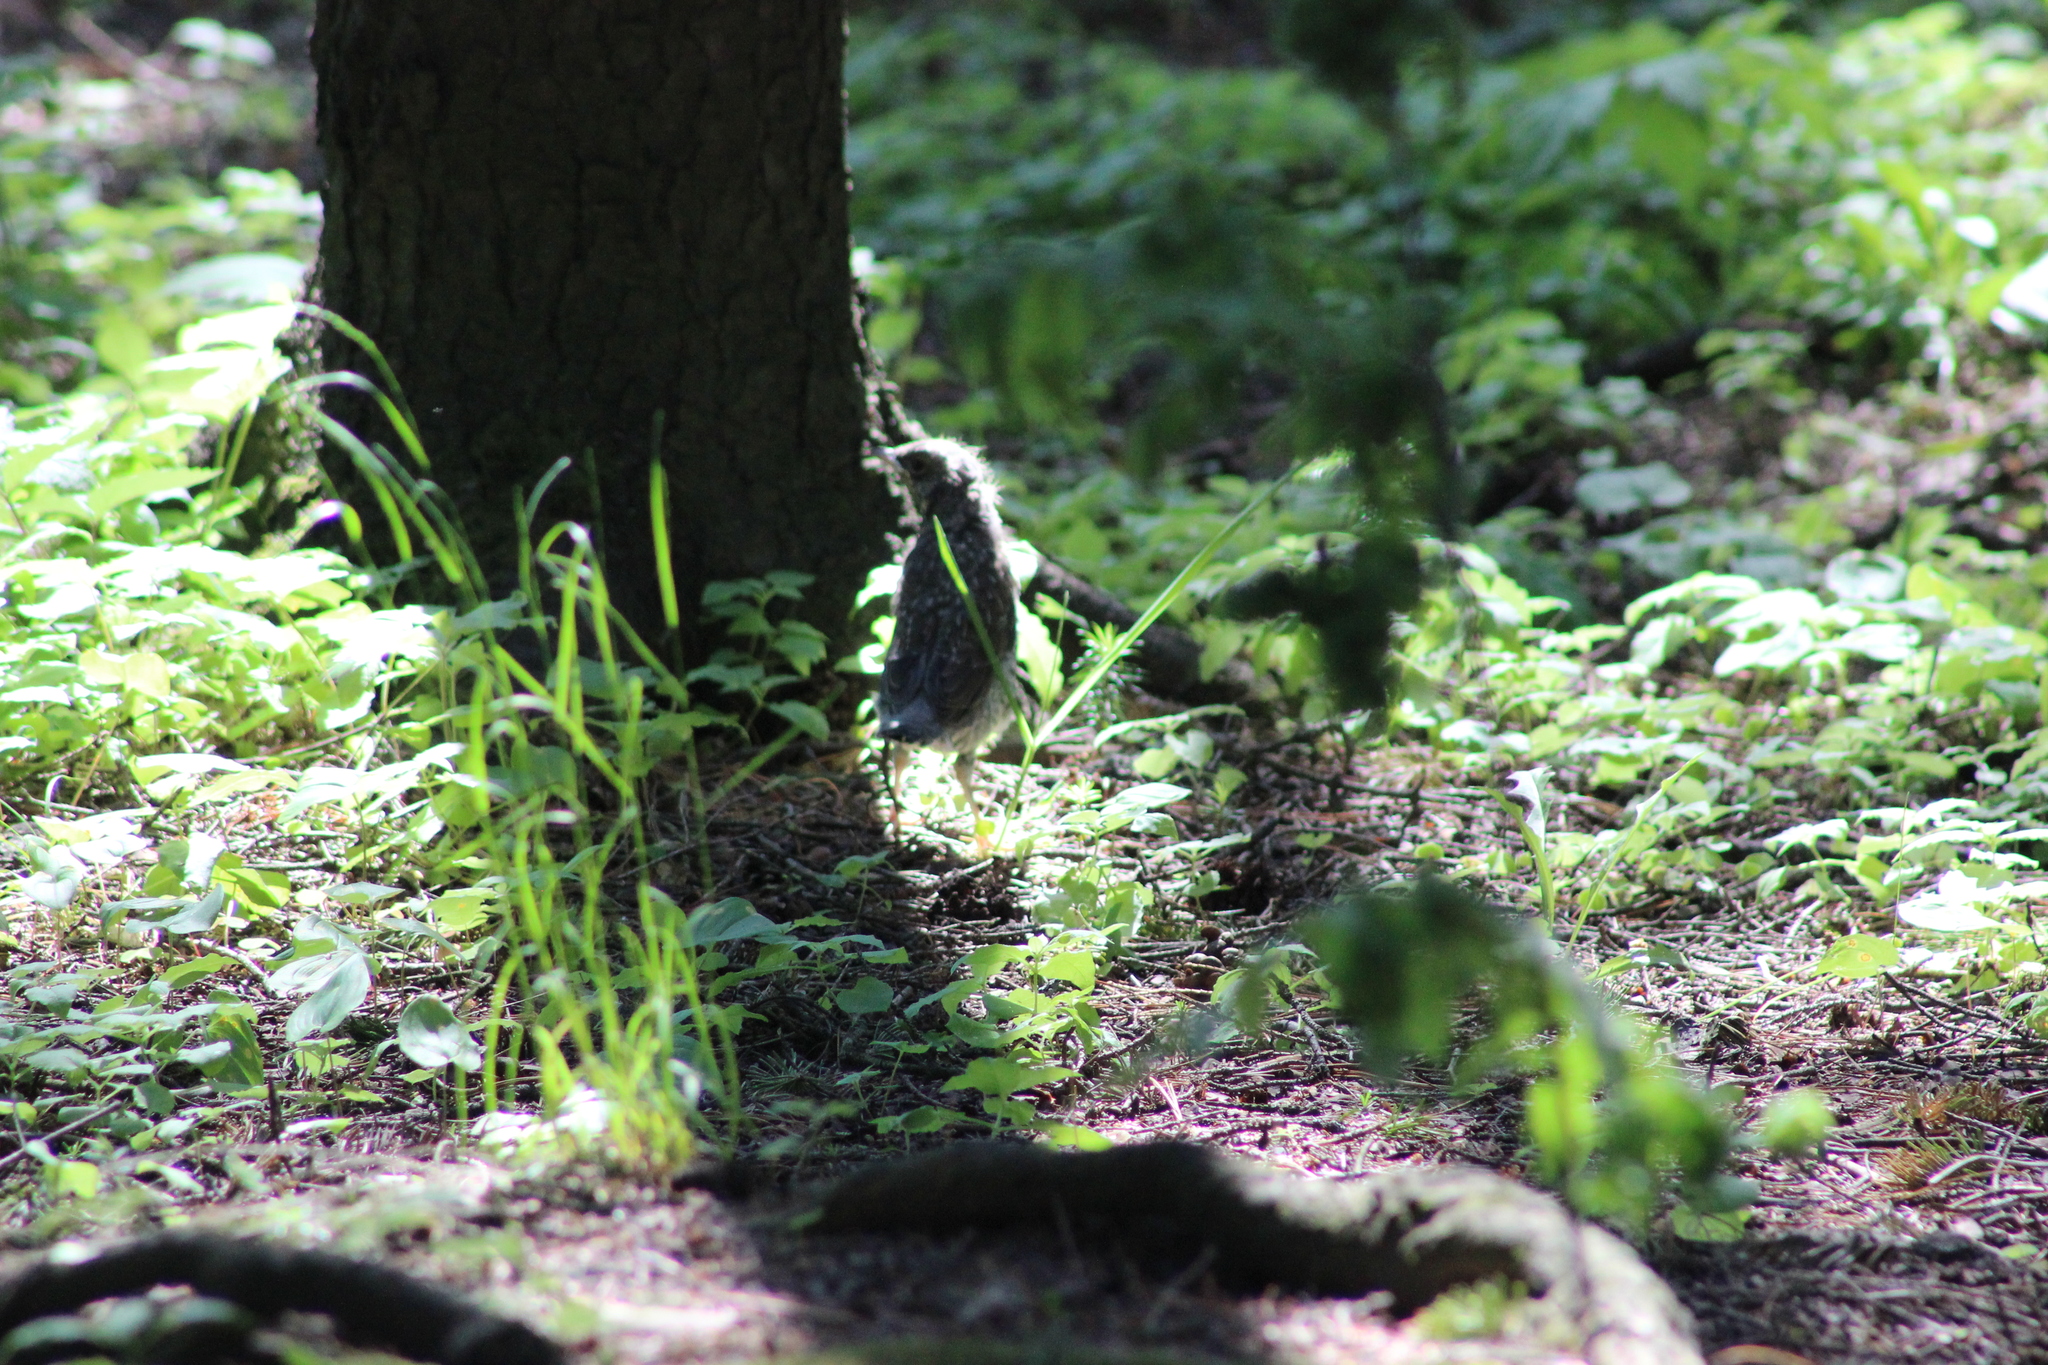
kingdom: Animalia
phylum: Chordata
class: Aves
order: Passeriformes
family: Turdidae
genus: Turdus
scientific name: Turdus pilaris
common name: Fieldfare
